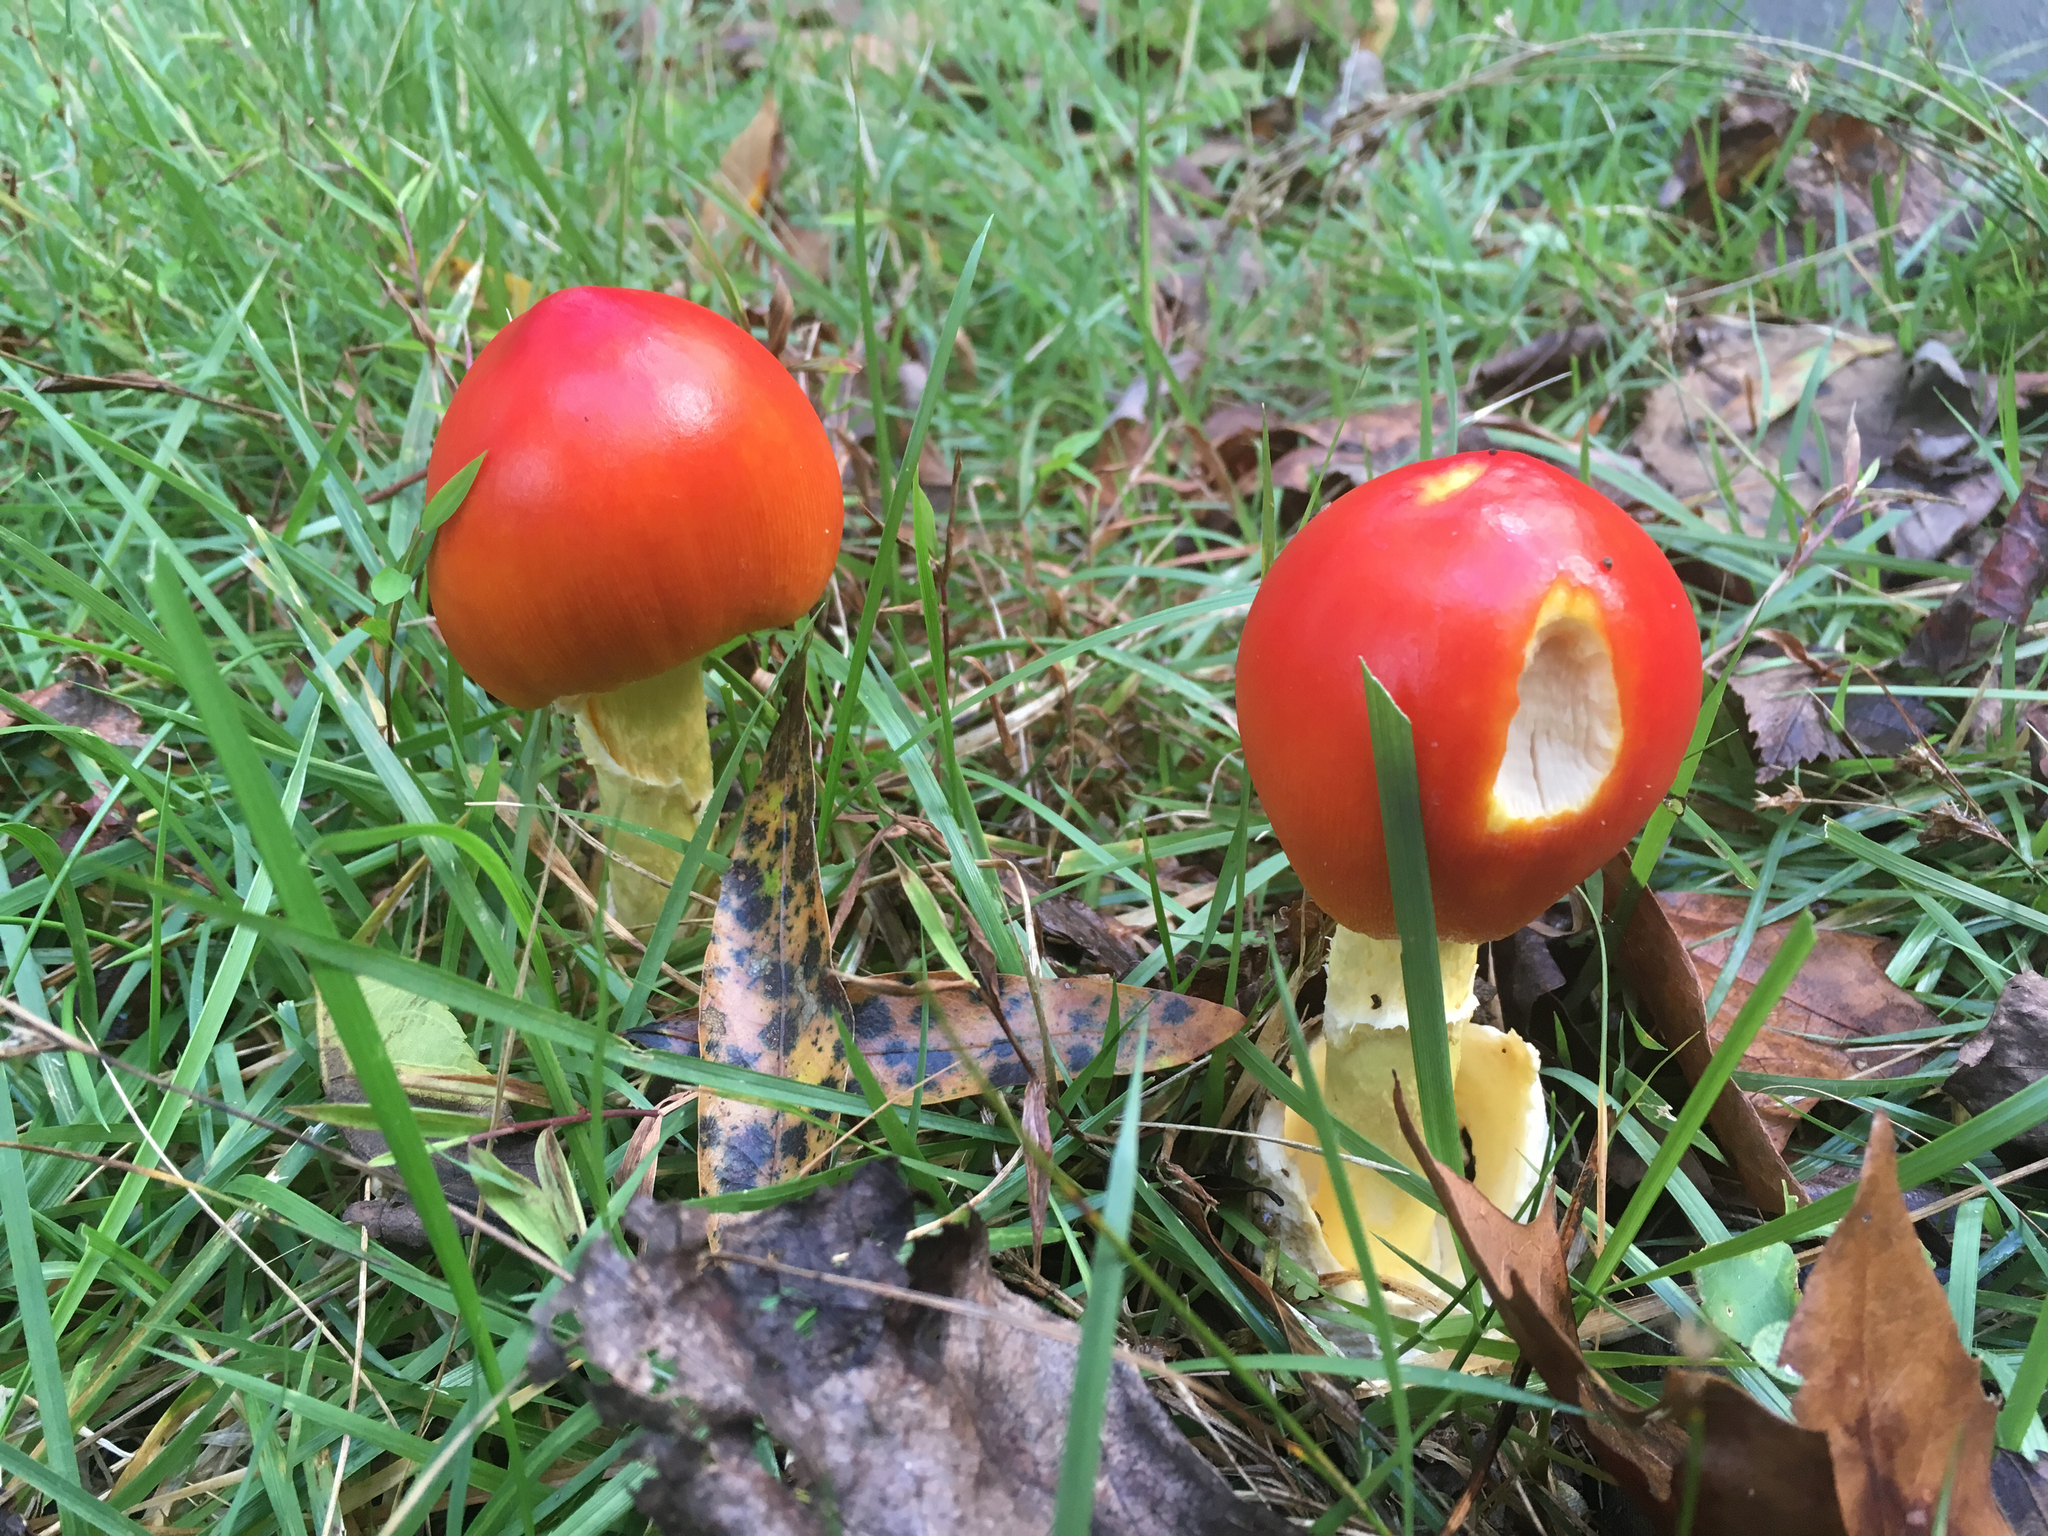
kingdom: Fungi
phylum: Basidiomycota
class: Agaricomycetes
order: Agaricales
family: Amanitaceae
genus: Amanita
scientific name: Amanita jacksonii
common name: Jackson's slender caesar
